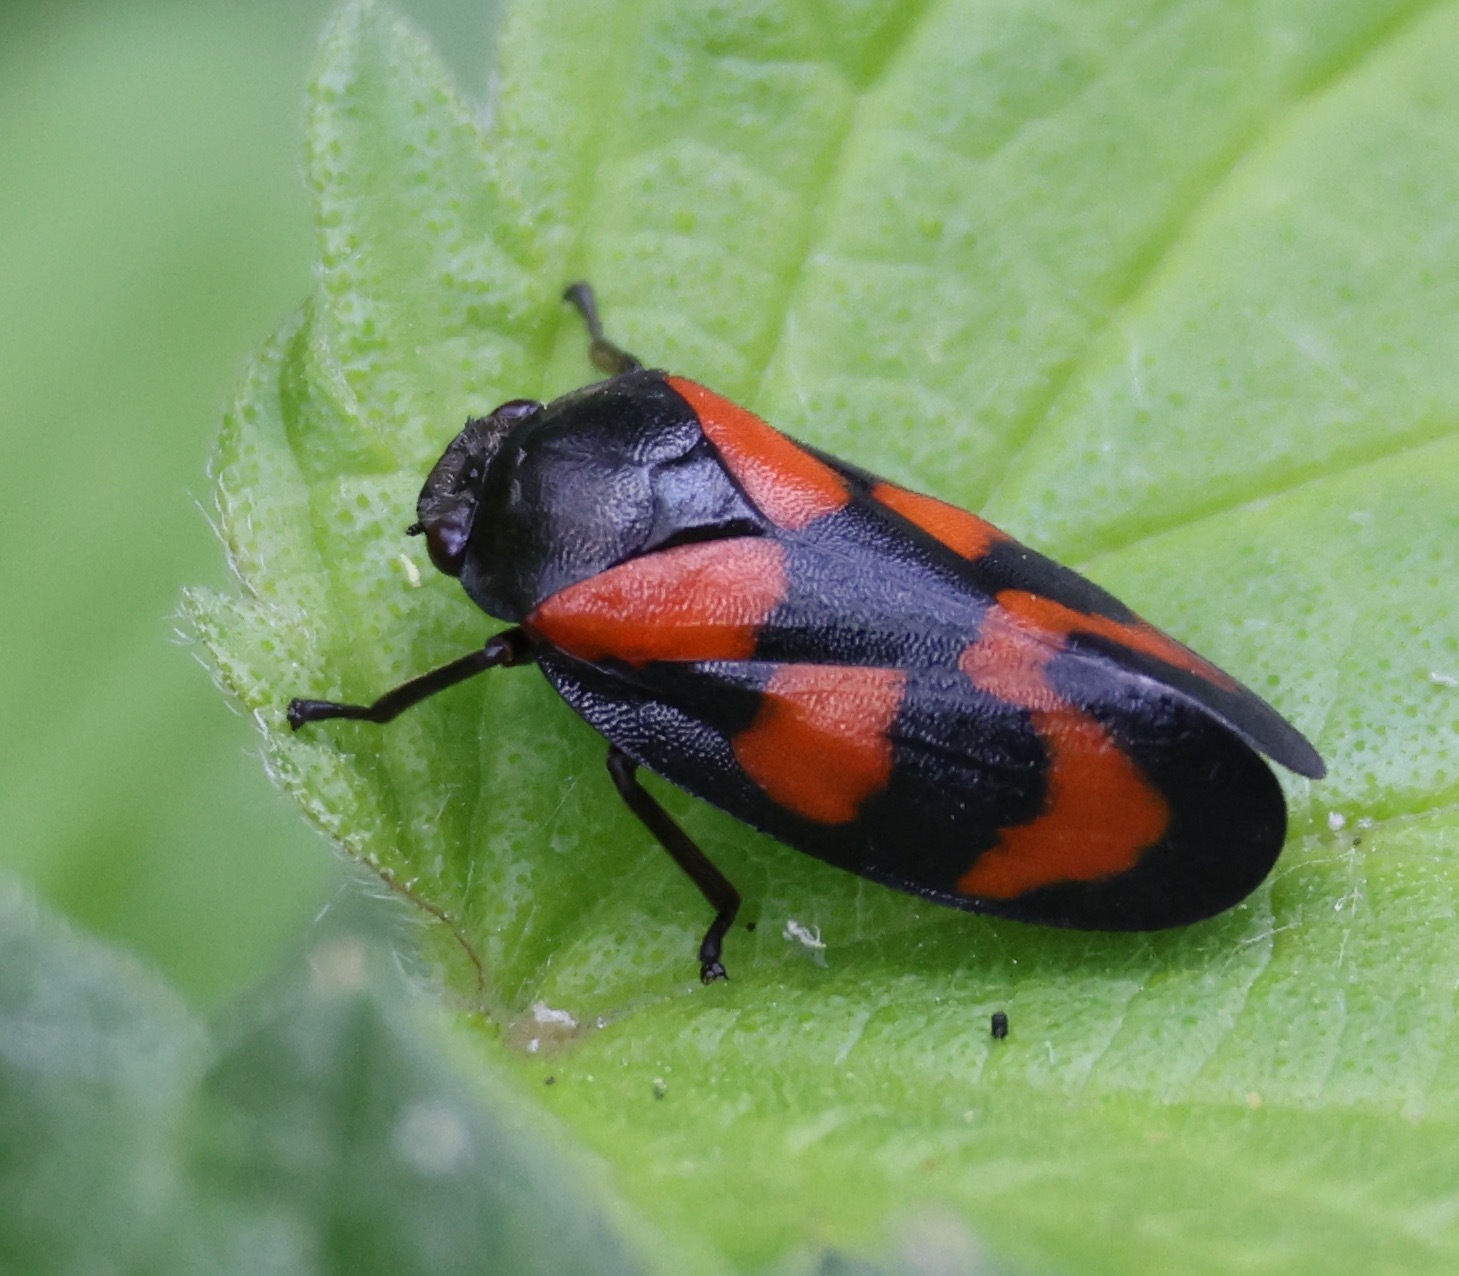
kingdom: Animalia
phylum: Arthropoda
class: Insecta
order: Hemiptera
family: Cercopidae
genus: Cercopis
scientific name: Cercopis vulnerata
